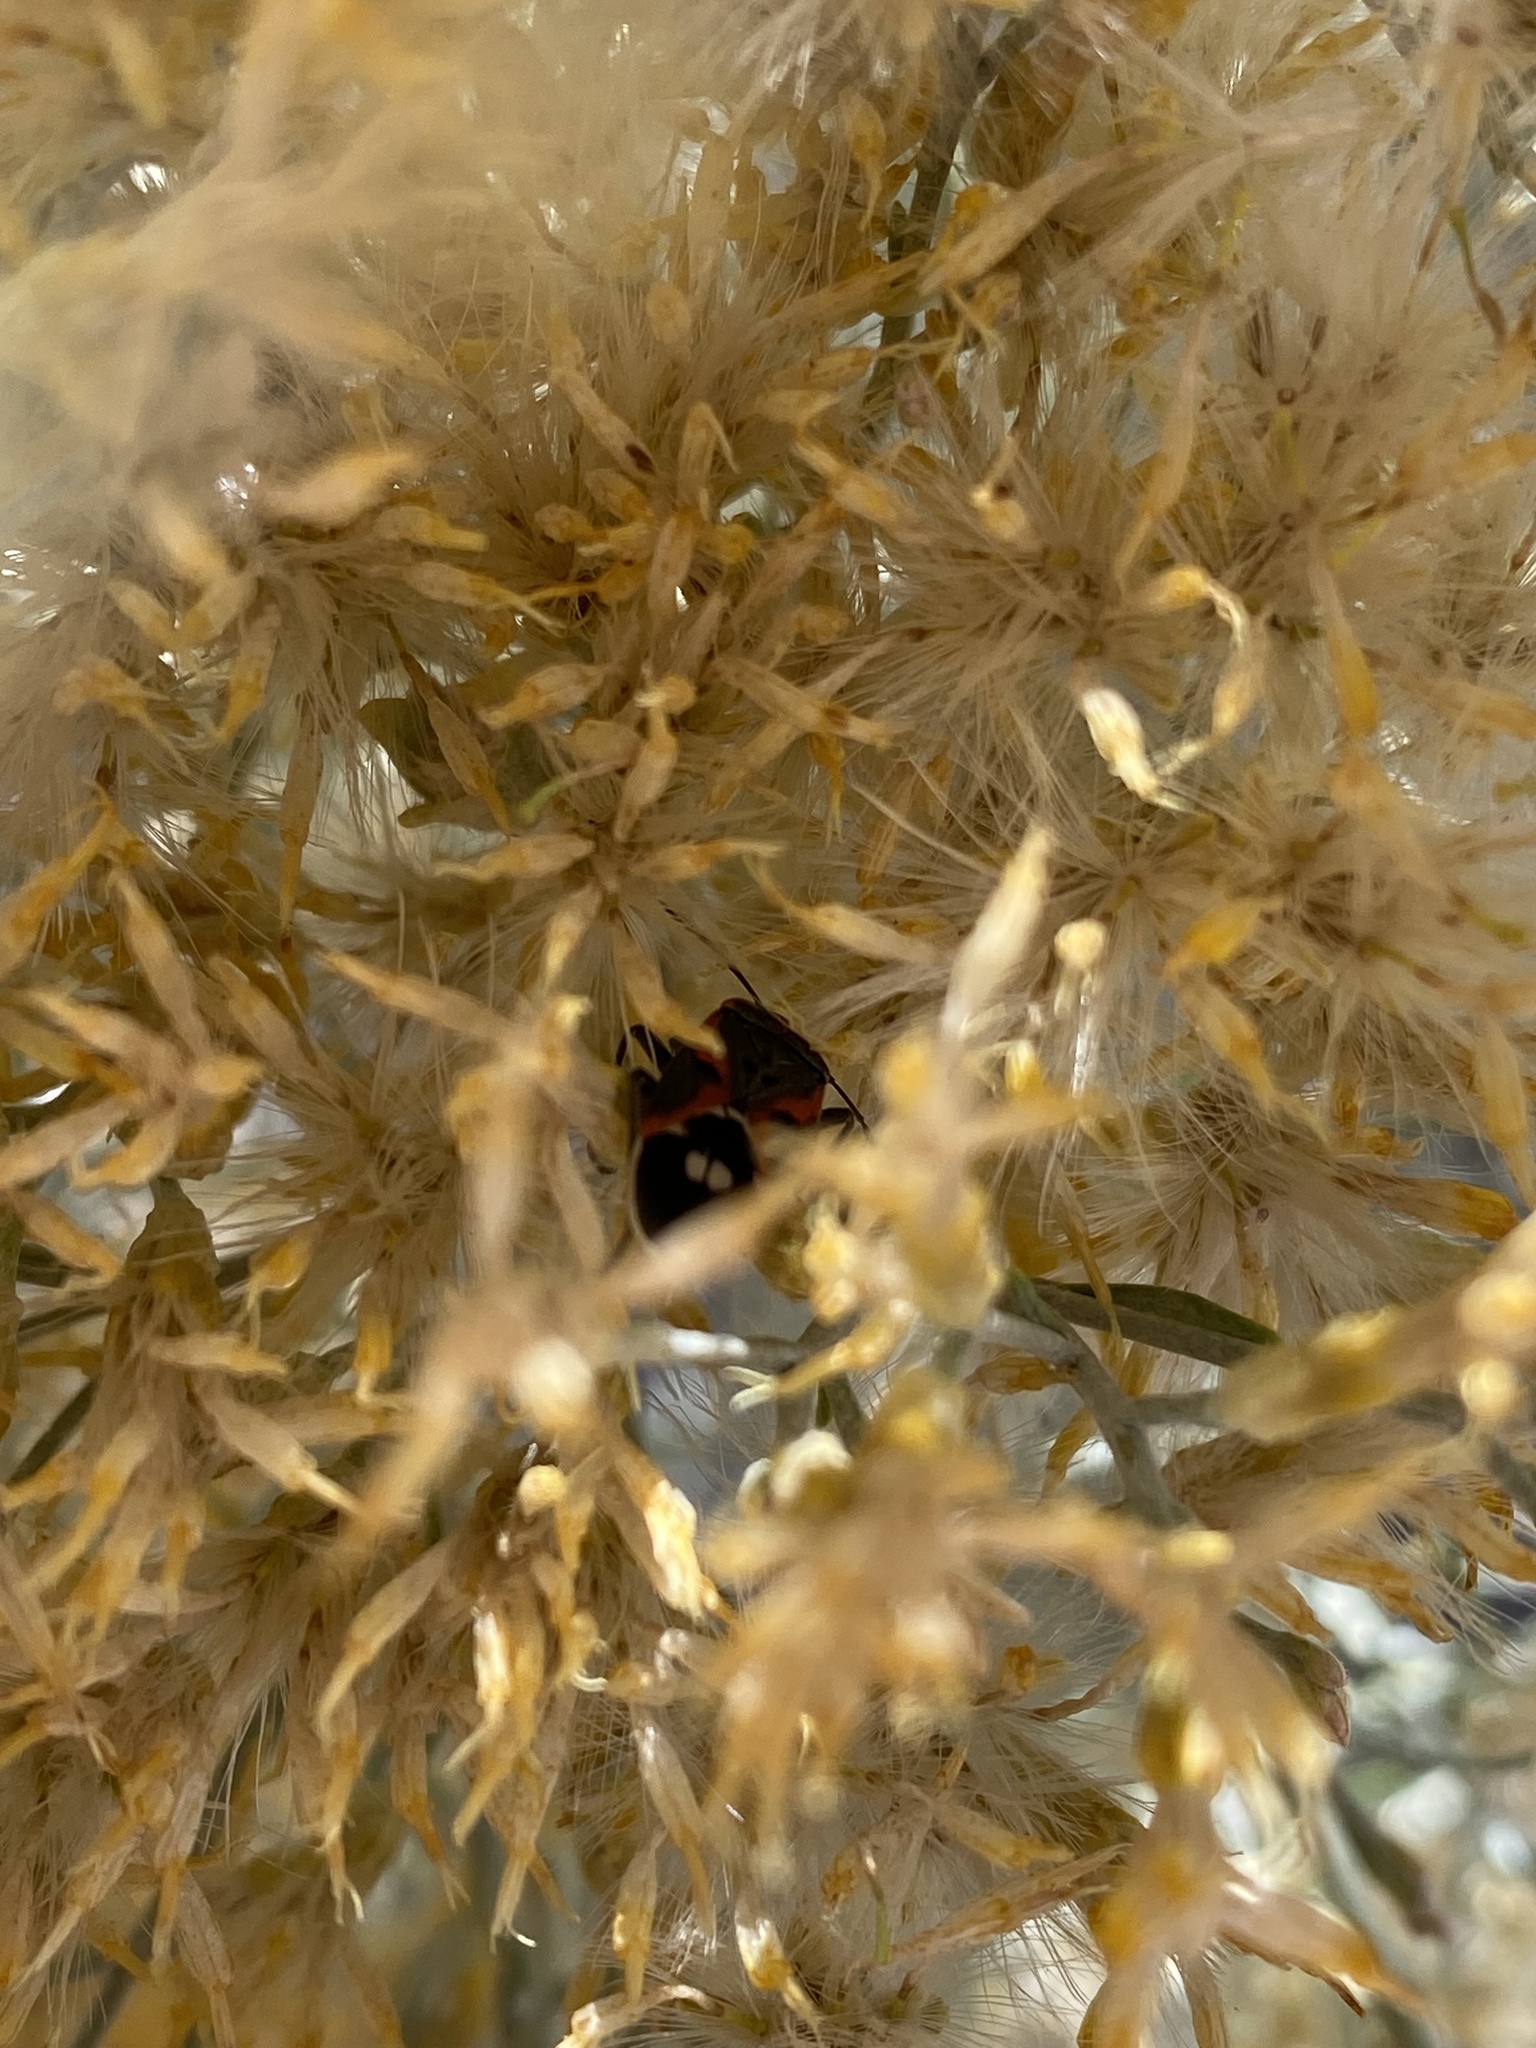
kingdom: Animalia
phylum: Arthropoda
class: Insecta
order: Hemiptera
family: Lygaeidae
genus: Lygaeus
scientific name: Lygaeus kalmii
